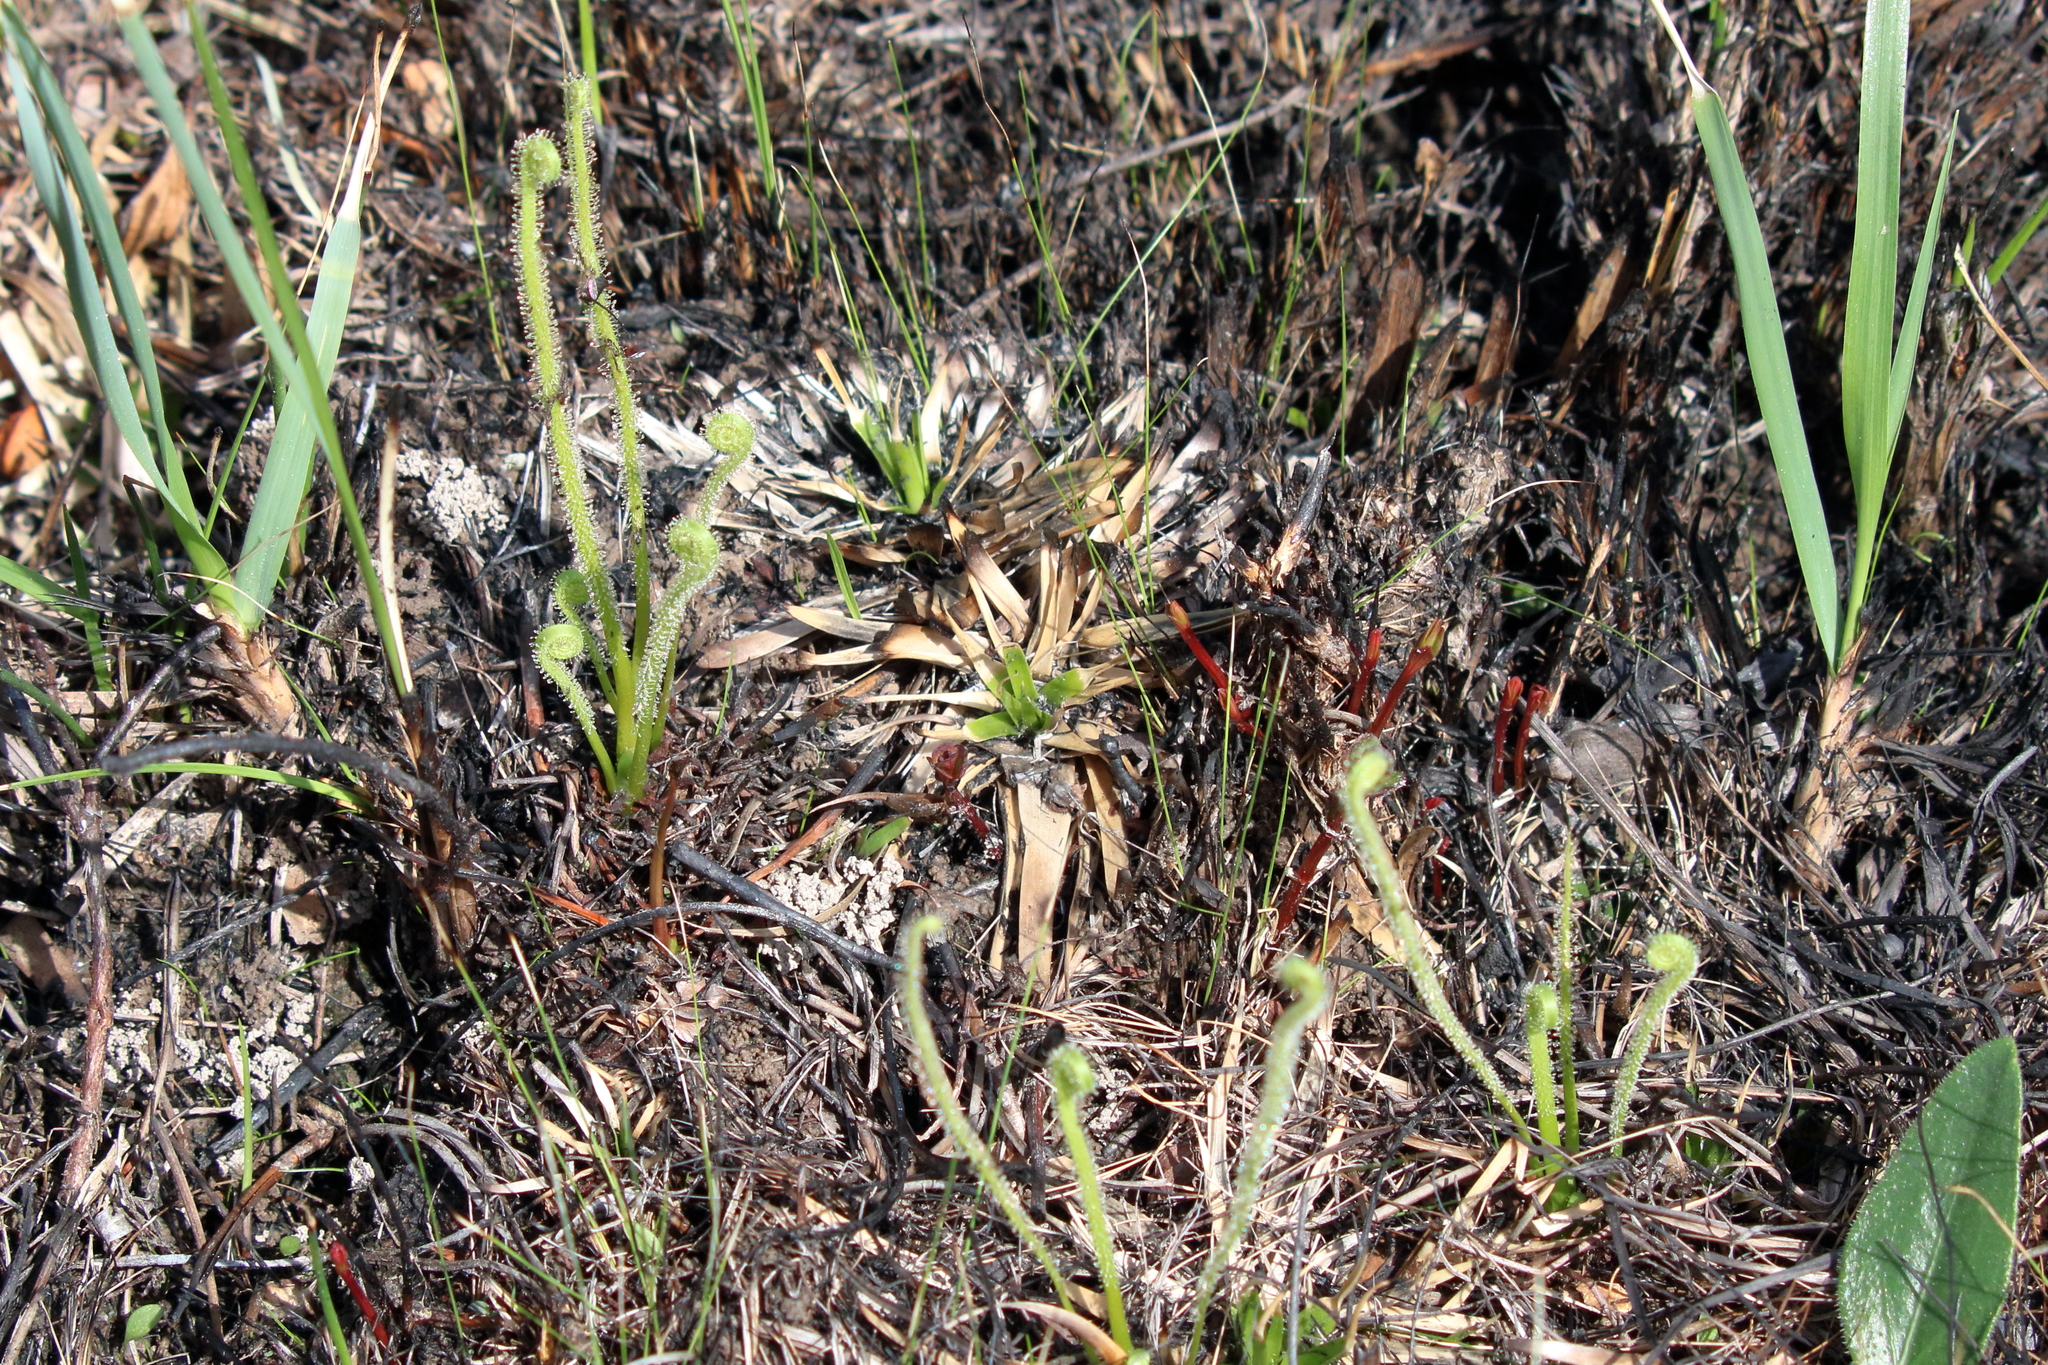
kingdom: Plantae
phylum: Tracheophyta
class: Magnoliopsida
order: Caryophyllales
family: Droseraceae
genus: Drosera
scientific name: Drosera filiformis
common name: Dew-thread
